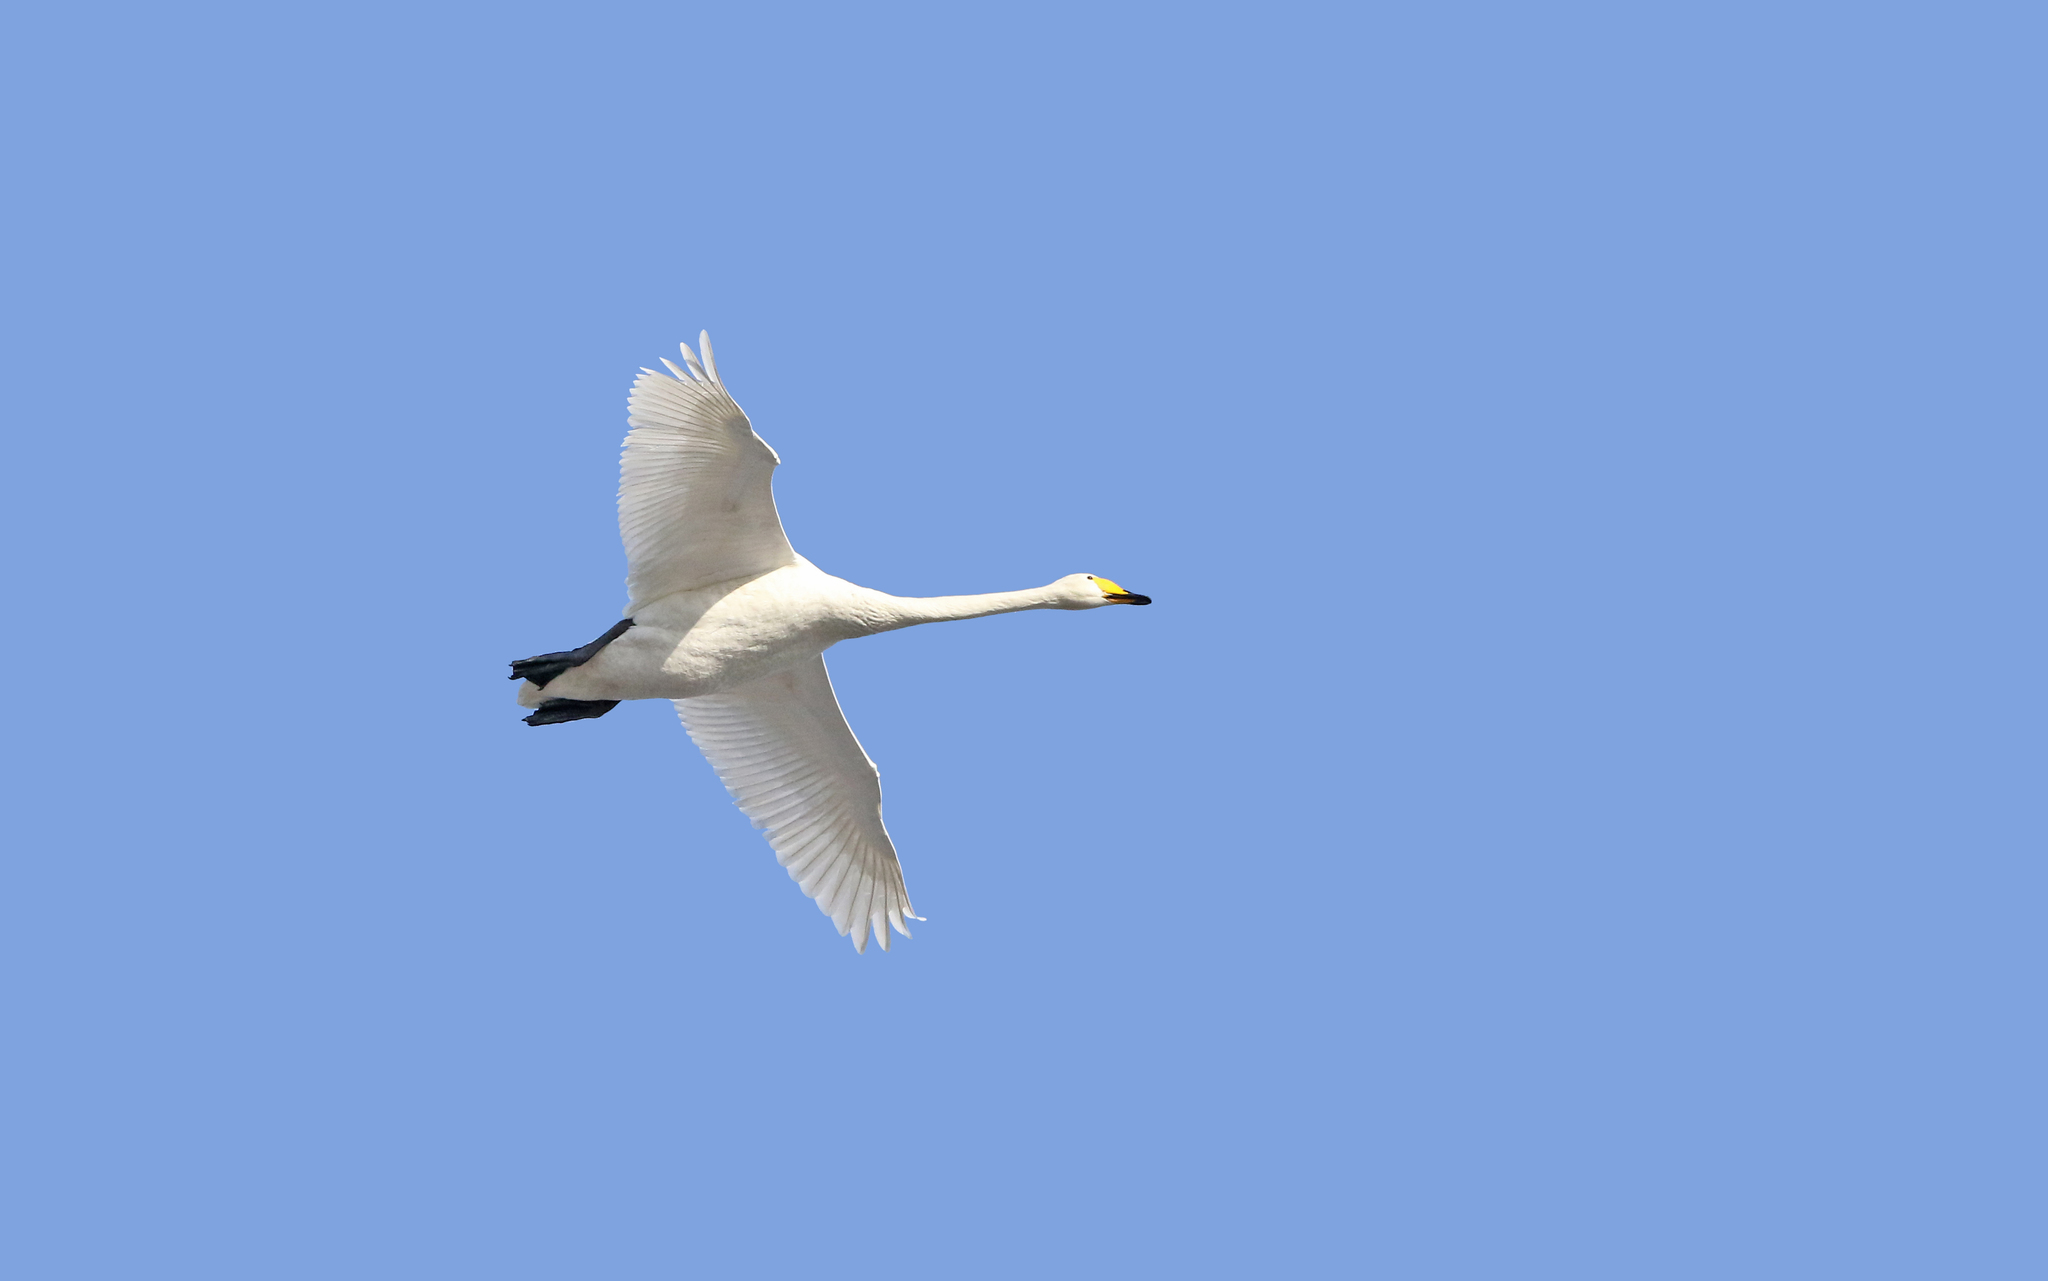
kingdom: Animalia
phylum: Chordata
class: Aves
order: Anseriformes
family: Anatidae
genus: Cygnus
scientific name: Cygnus cygnus
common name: Whooper swan
